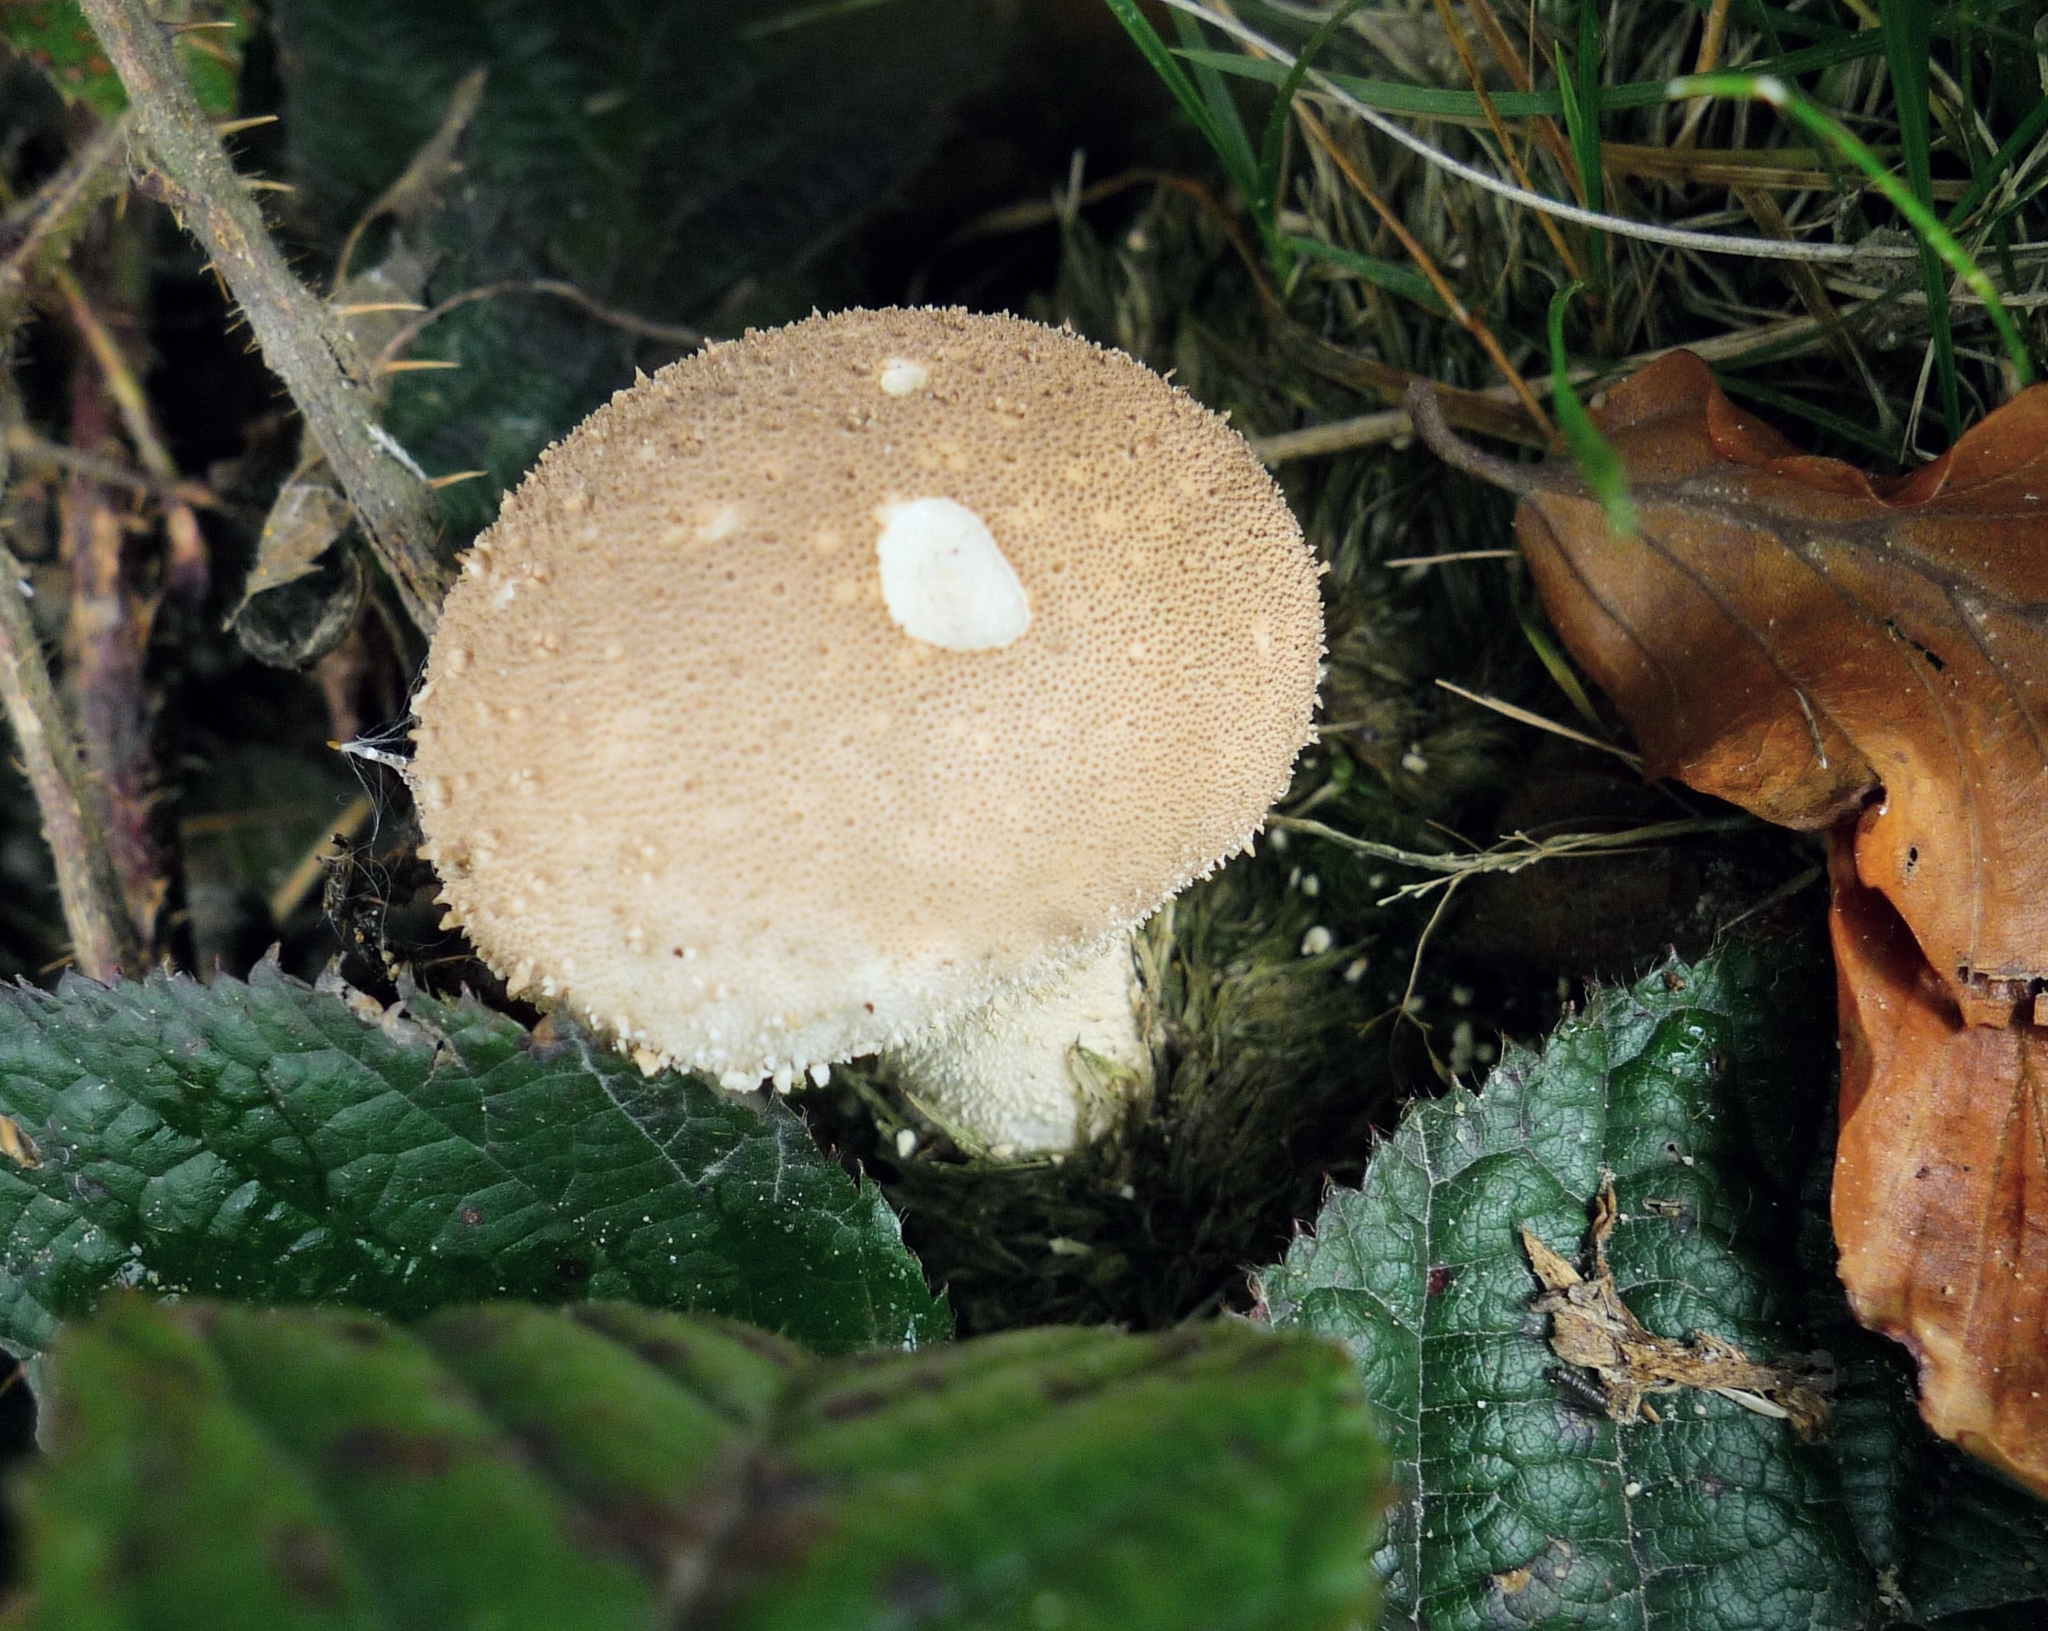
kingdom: Fungi
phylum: Basidiomycota
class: Agaricomycetes
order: Agaricales
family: Lycoperdaceae
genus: Lycoperdon
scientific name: Lycoperdon perlatum
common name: Common puffball
